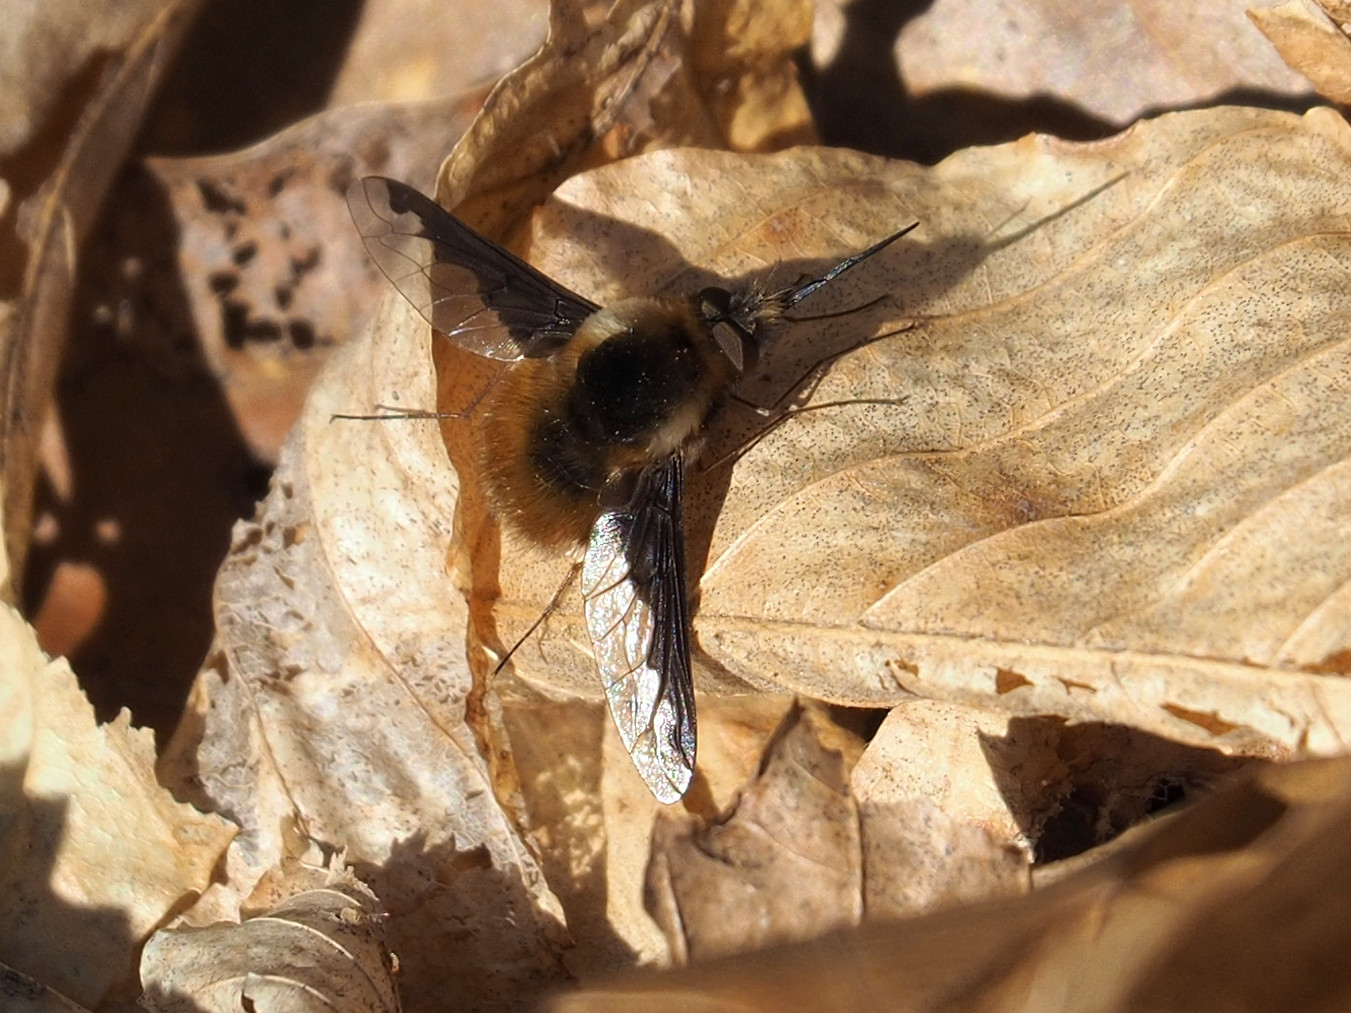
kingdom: Animalia
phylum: Arthropoda
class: Insecta
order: Diptera
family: Bombyliidae
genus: Bombylius
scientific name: Bombylius major
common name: Bee fly
